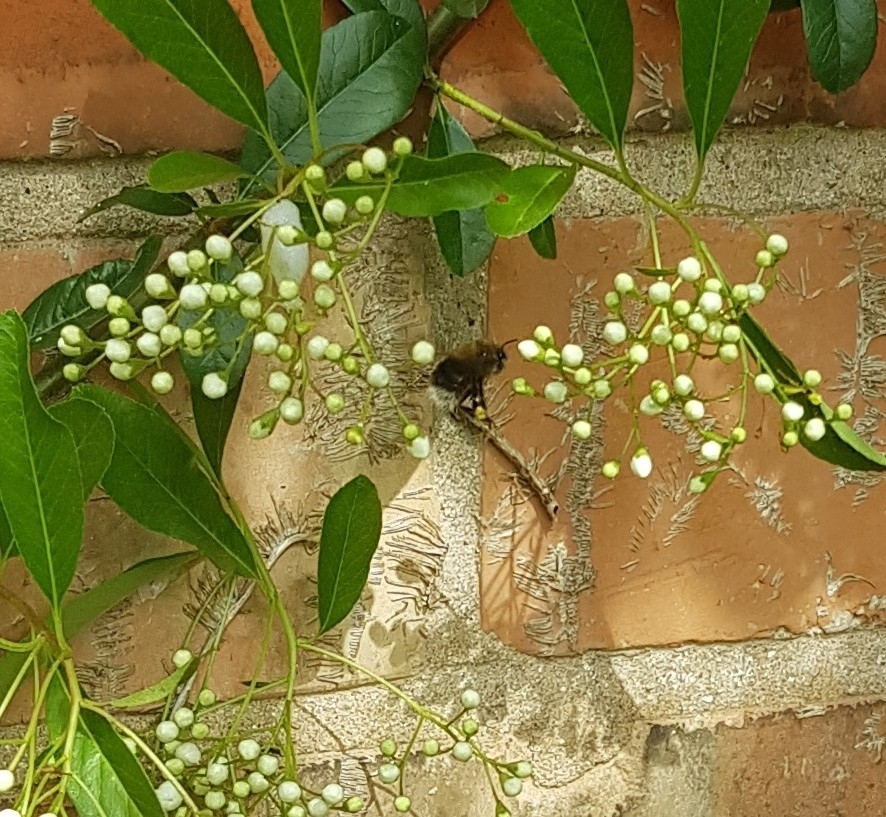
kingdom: Animalia
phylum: Arthropoda
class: Insecta
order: Hymenoptera
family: Apidae
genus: Bombus
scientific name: Bombus hypnorum
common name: New garden bumblebee
